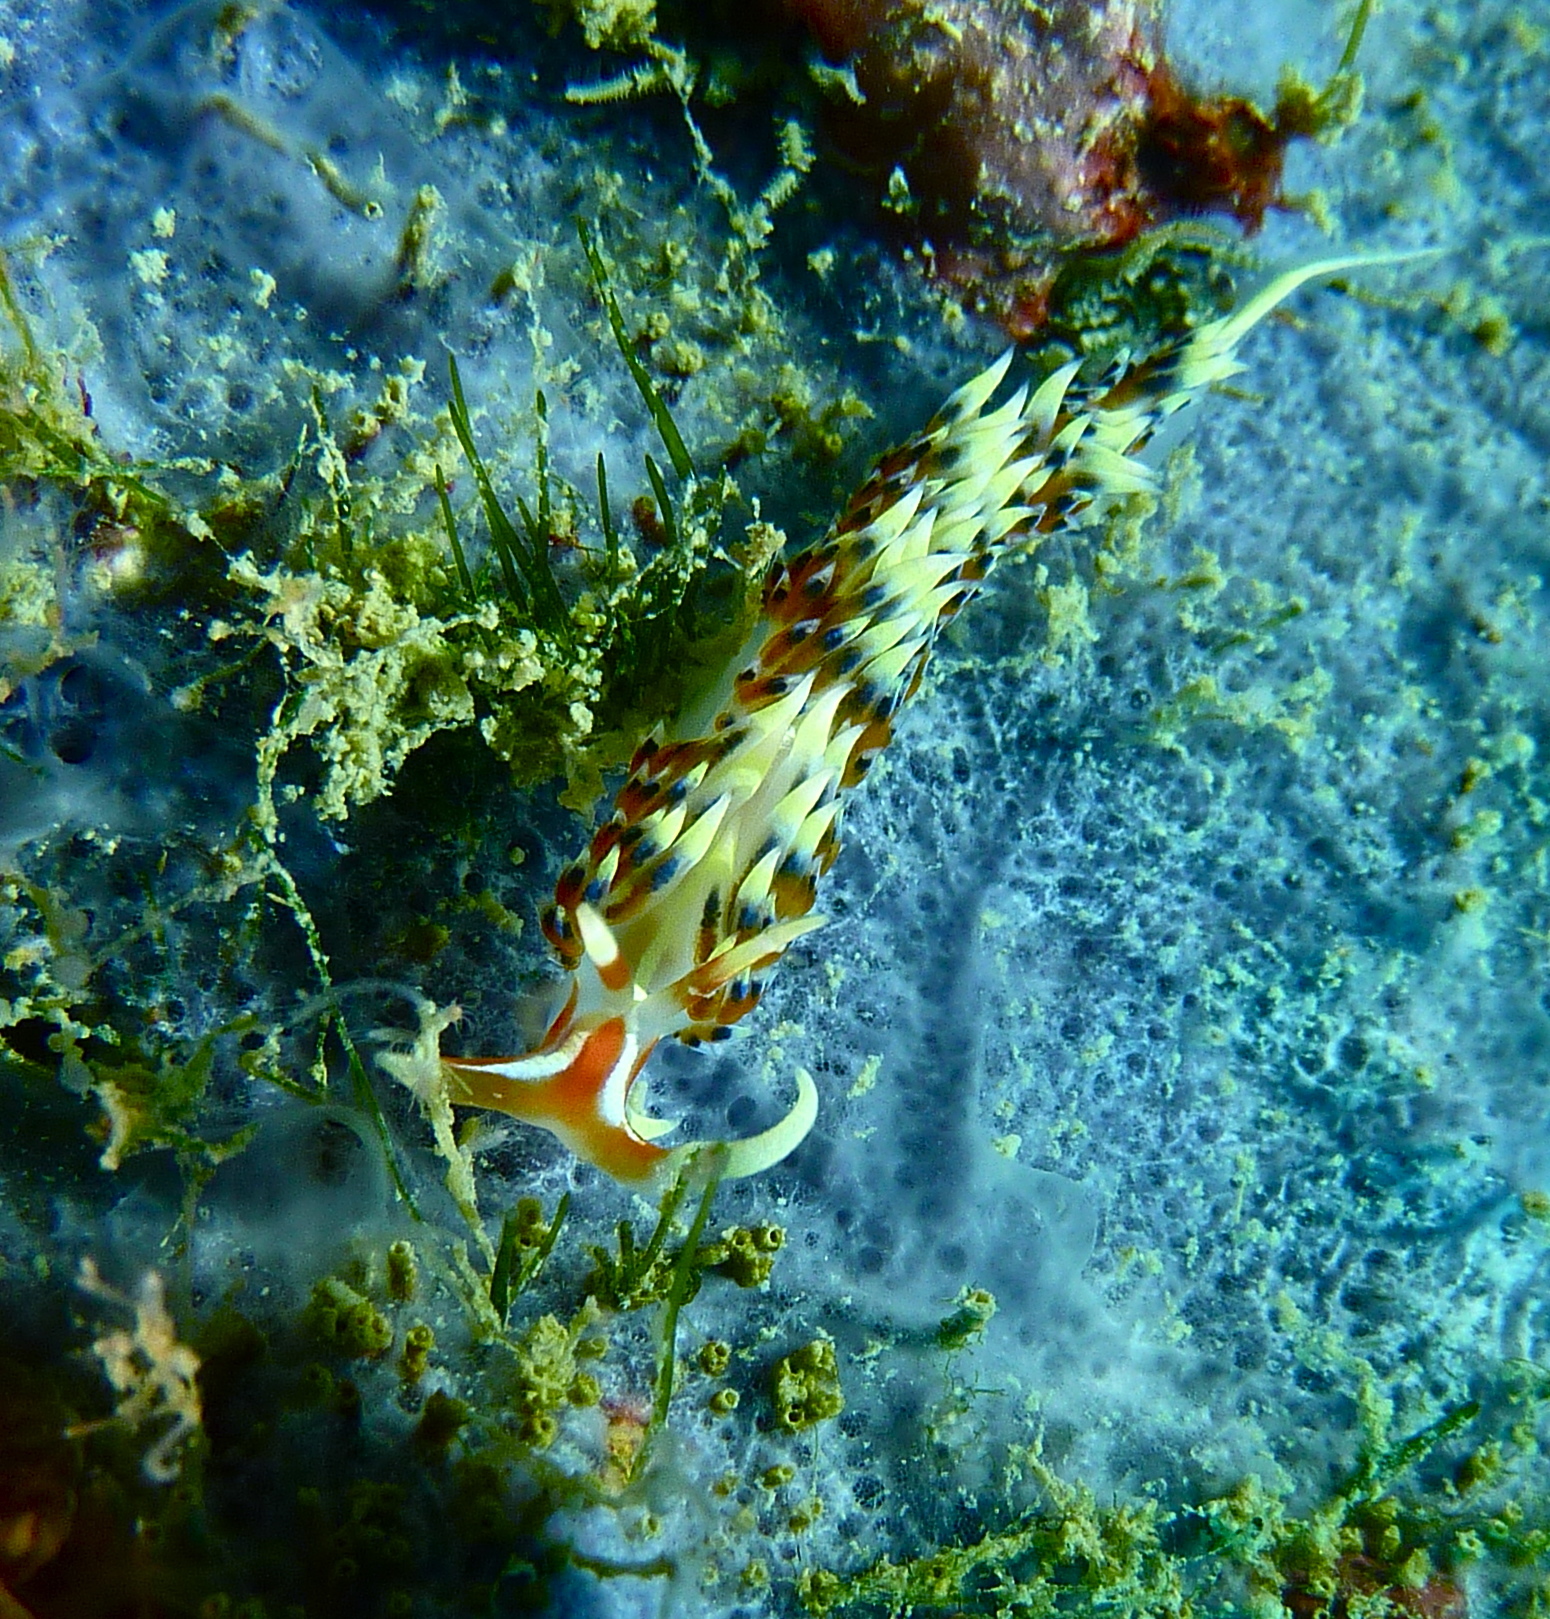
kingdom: Animalia
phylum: Mollusca
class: Gastropoda
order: Nudibranchia
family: Facelinidae
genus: Caloria
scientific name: Caloria indica
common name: Sea slug
